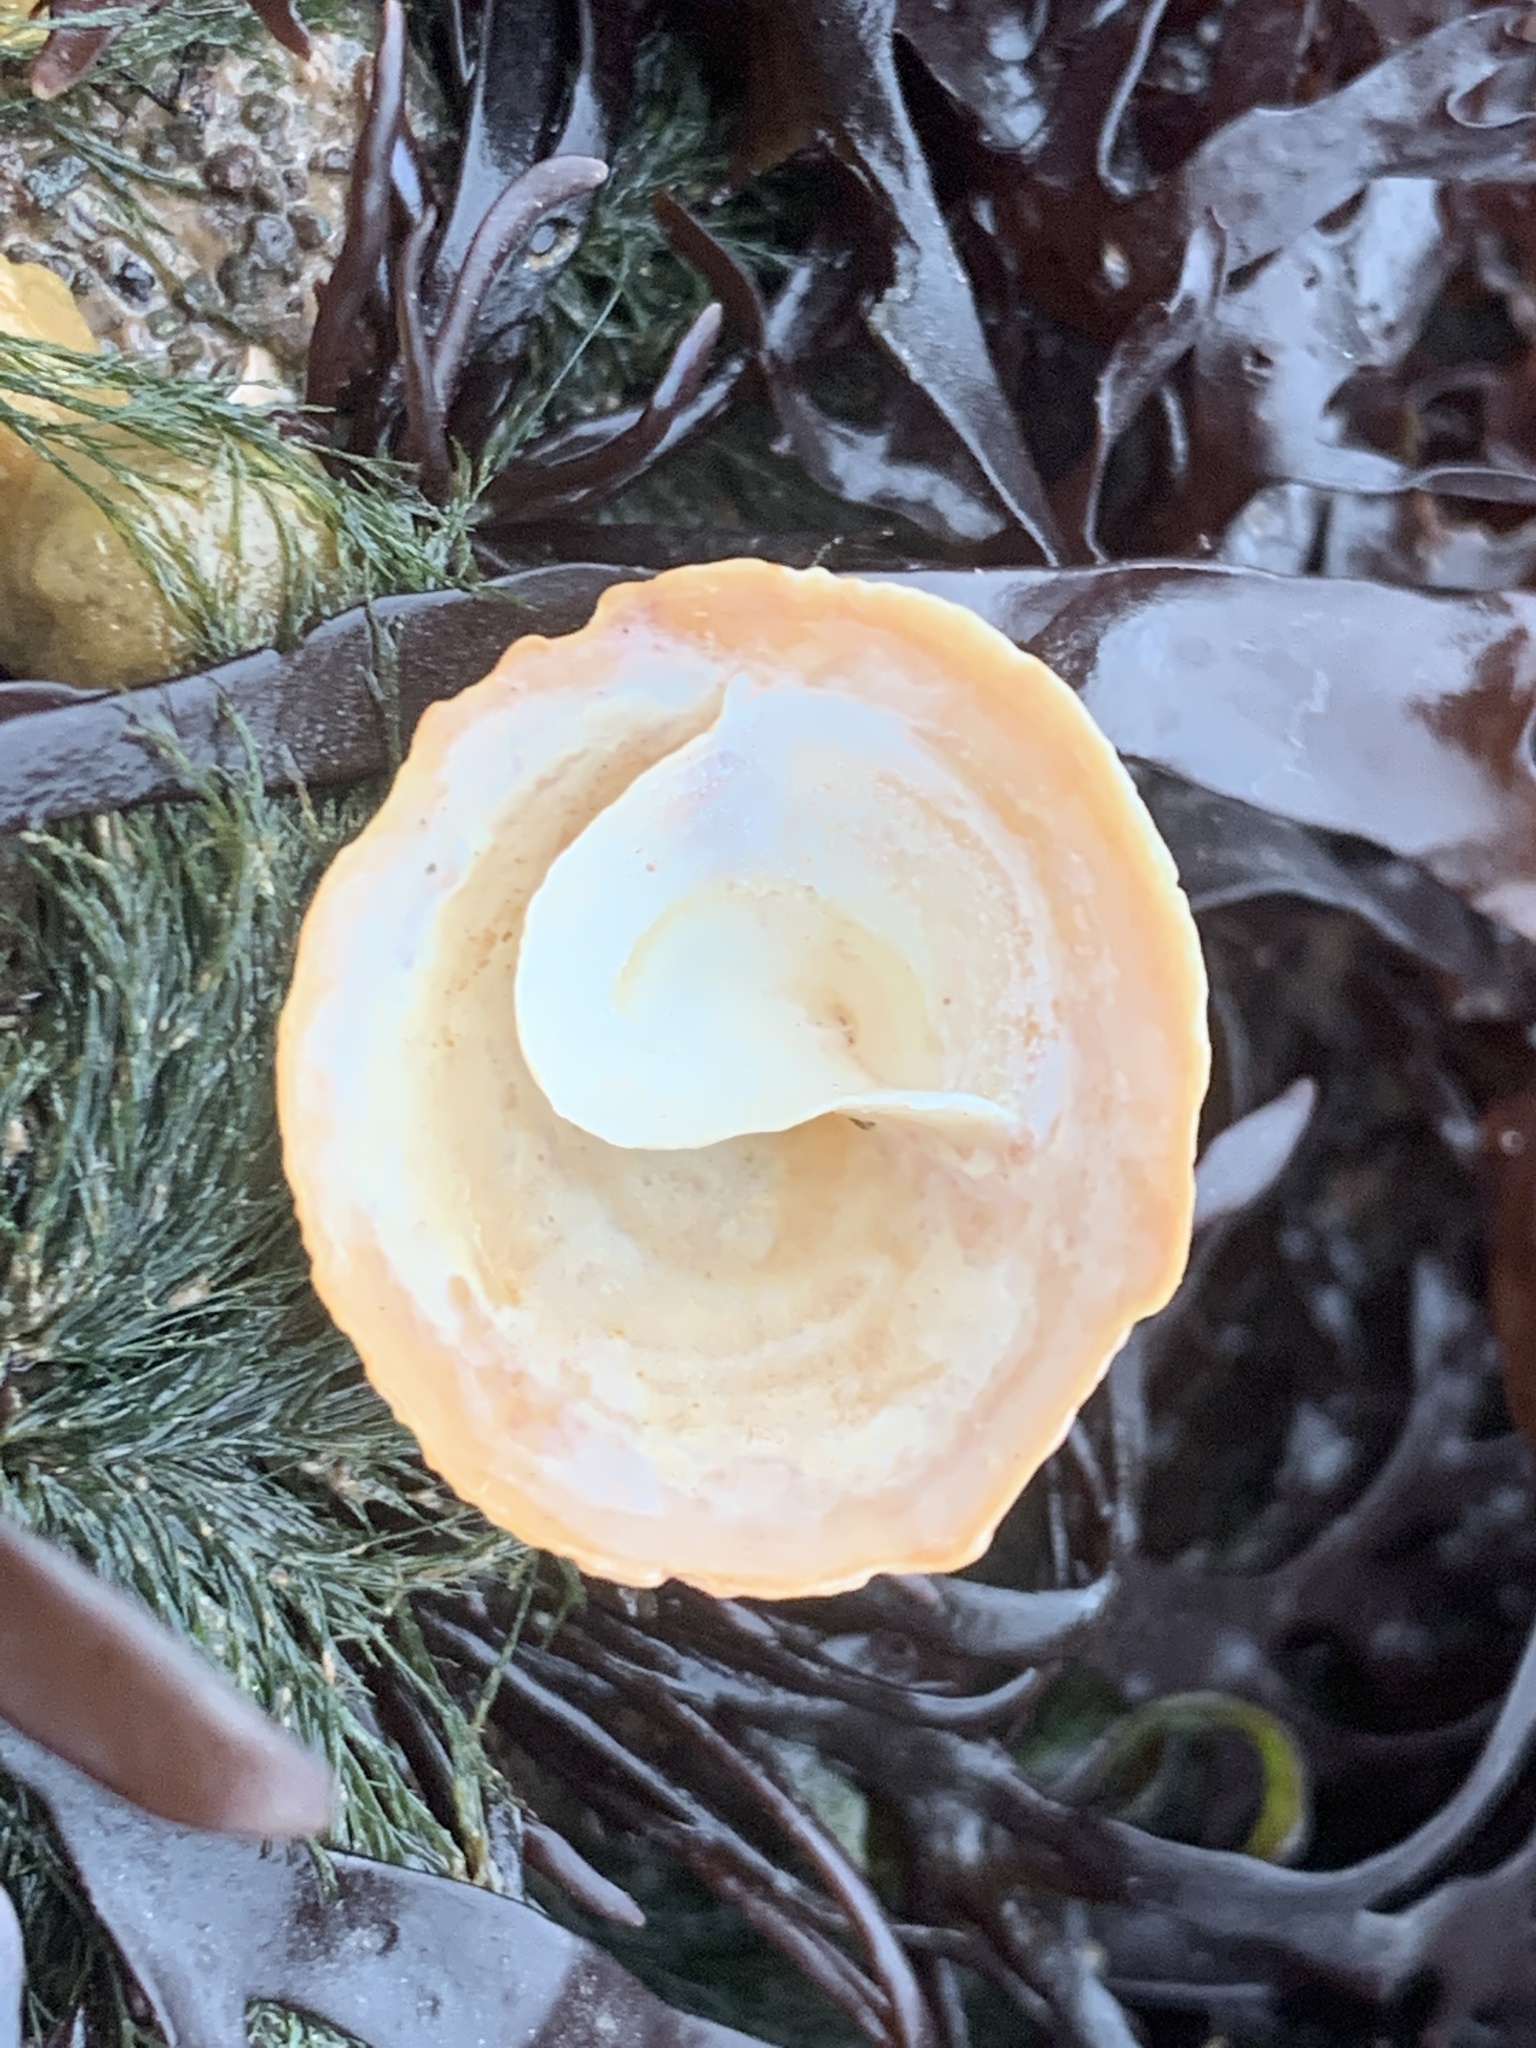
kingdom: Animalia
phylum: Mollusca
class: Gastropoda
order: Littorinimorpha
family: Calyptraeidae
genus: Crucibulum
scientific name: Crucibulum striatum
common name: Striate cup-and -saucer
